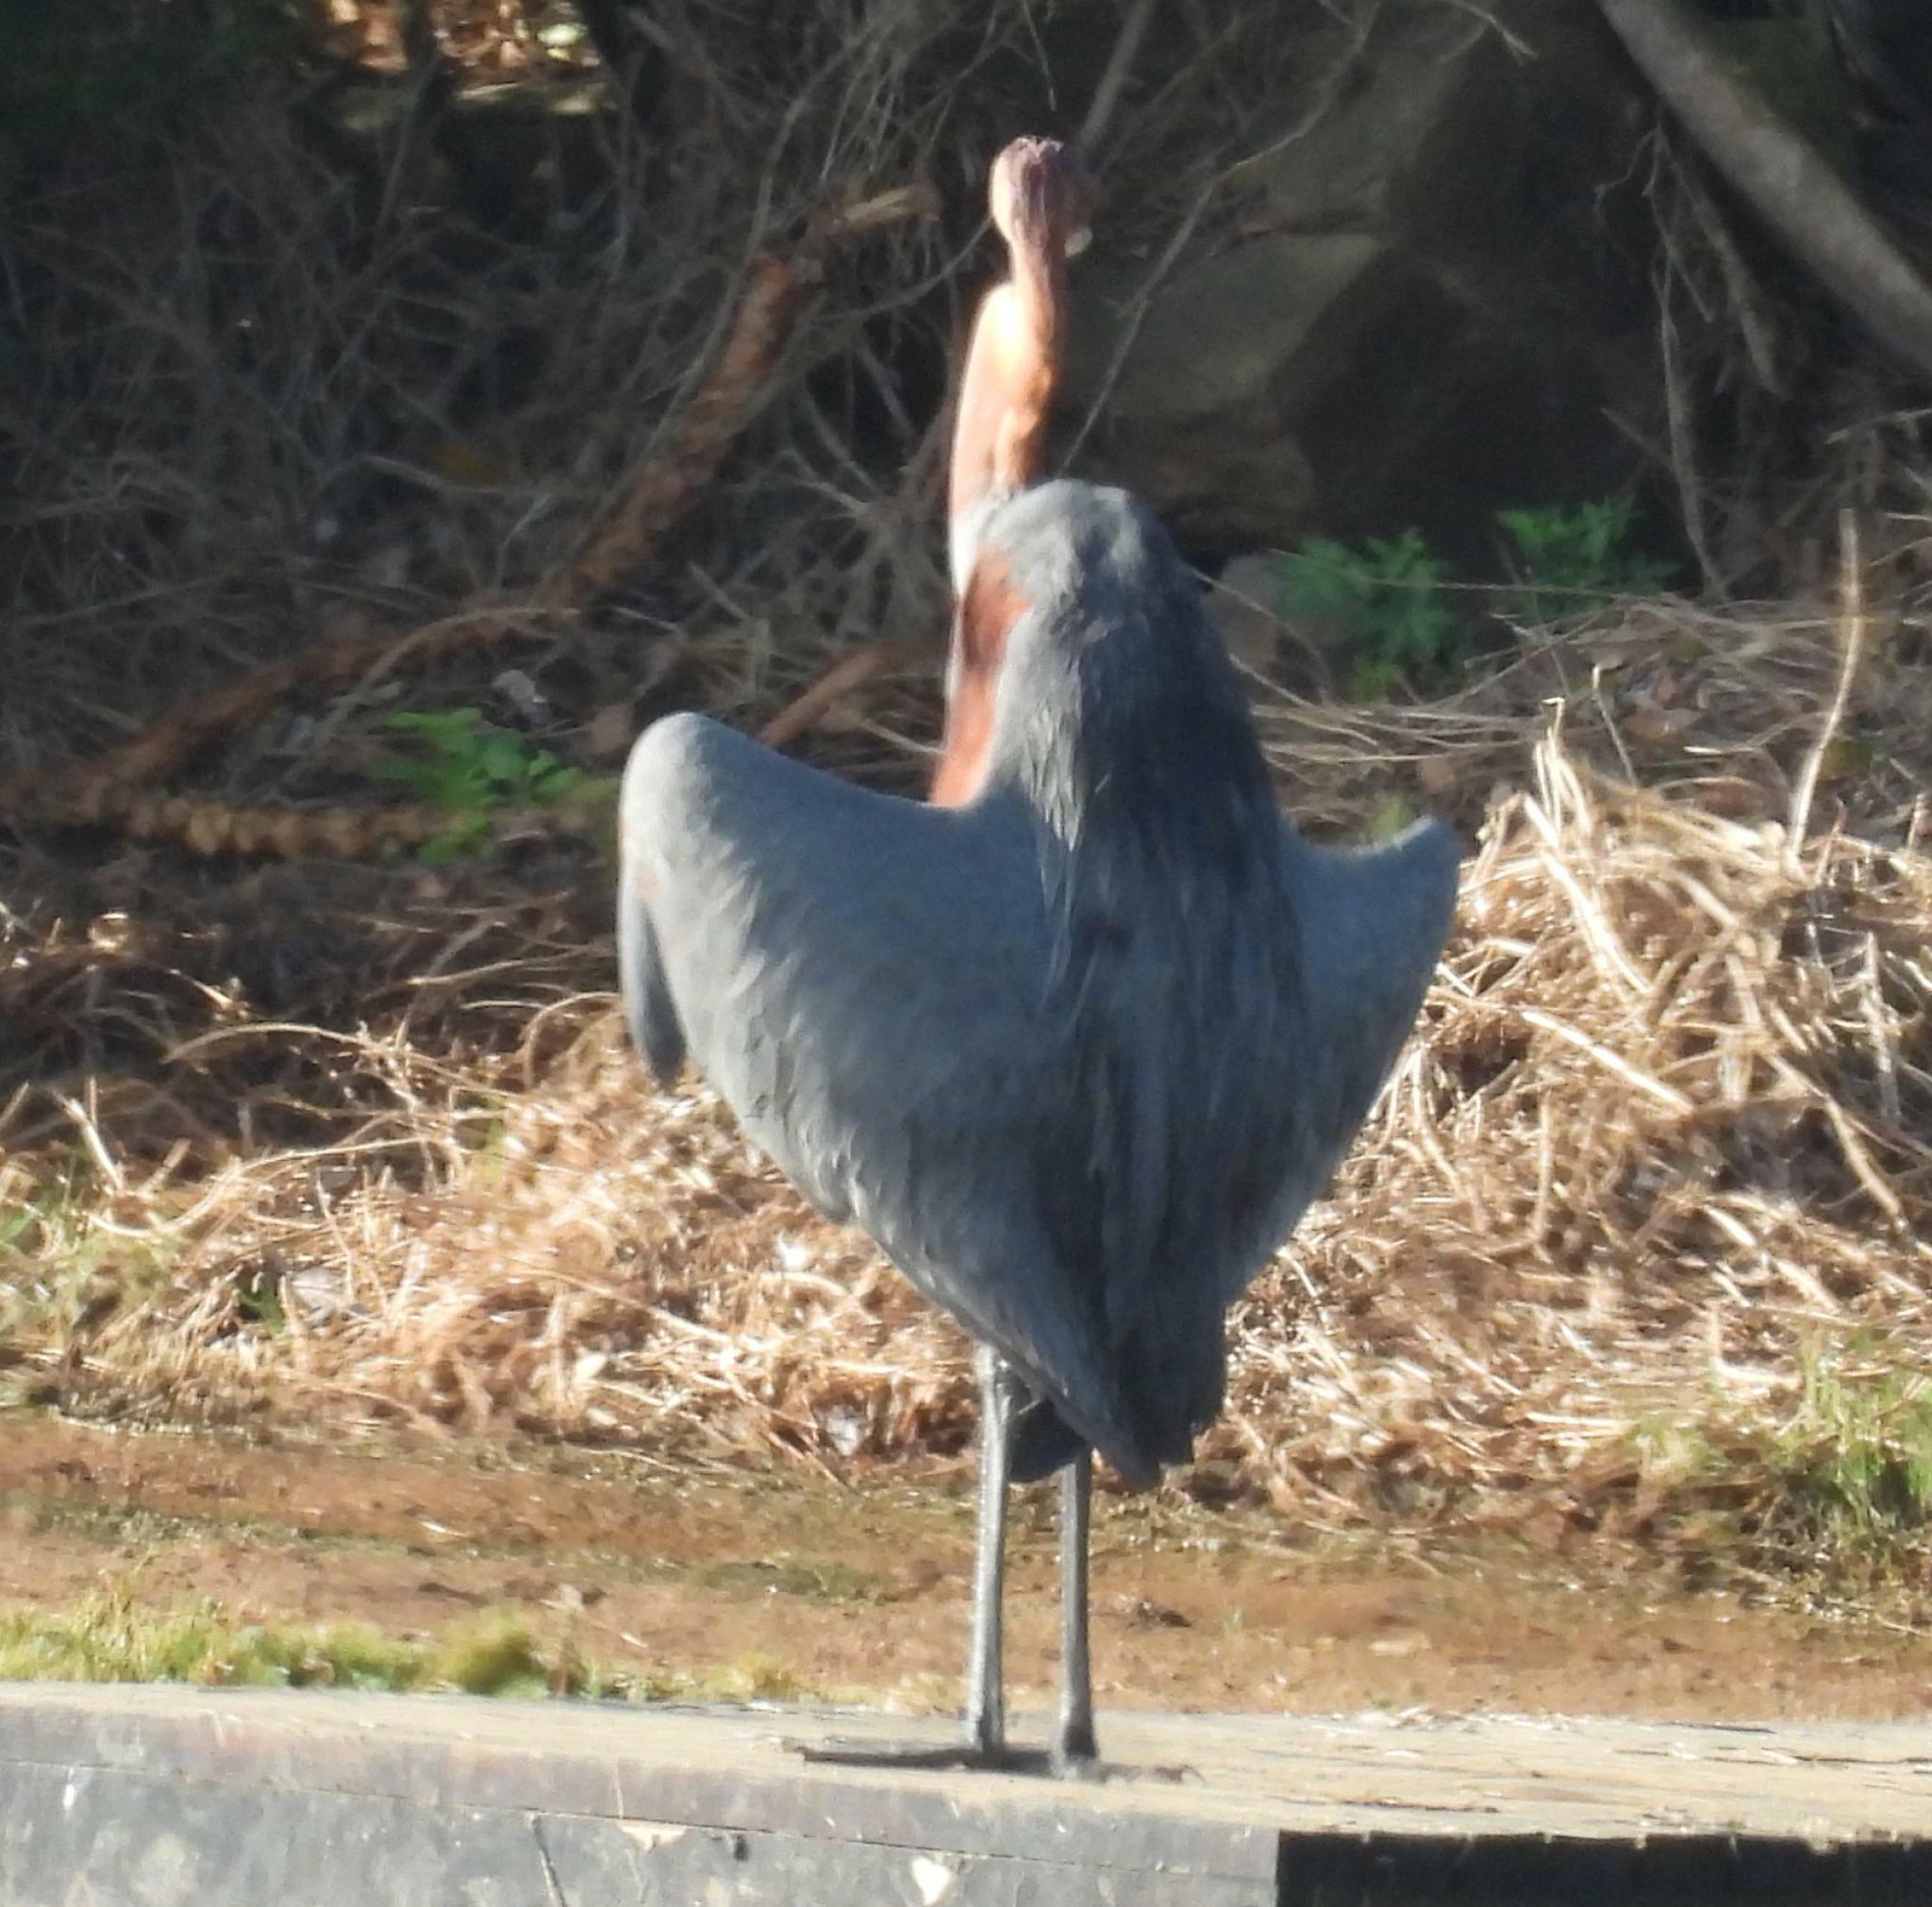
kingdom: Animalia
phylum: Chordata
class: Aves
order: Pelecaniformes
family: Ardeidae
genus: Ardea
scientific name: Ardea goliath
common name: Goliath heron
